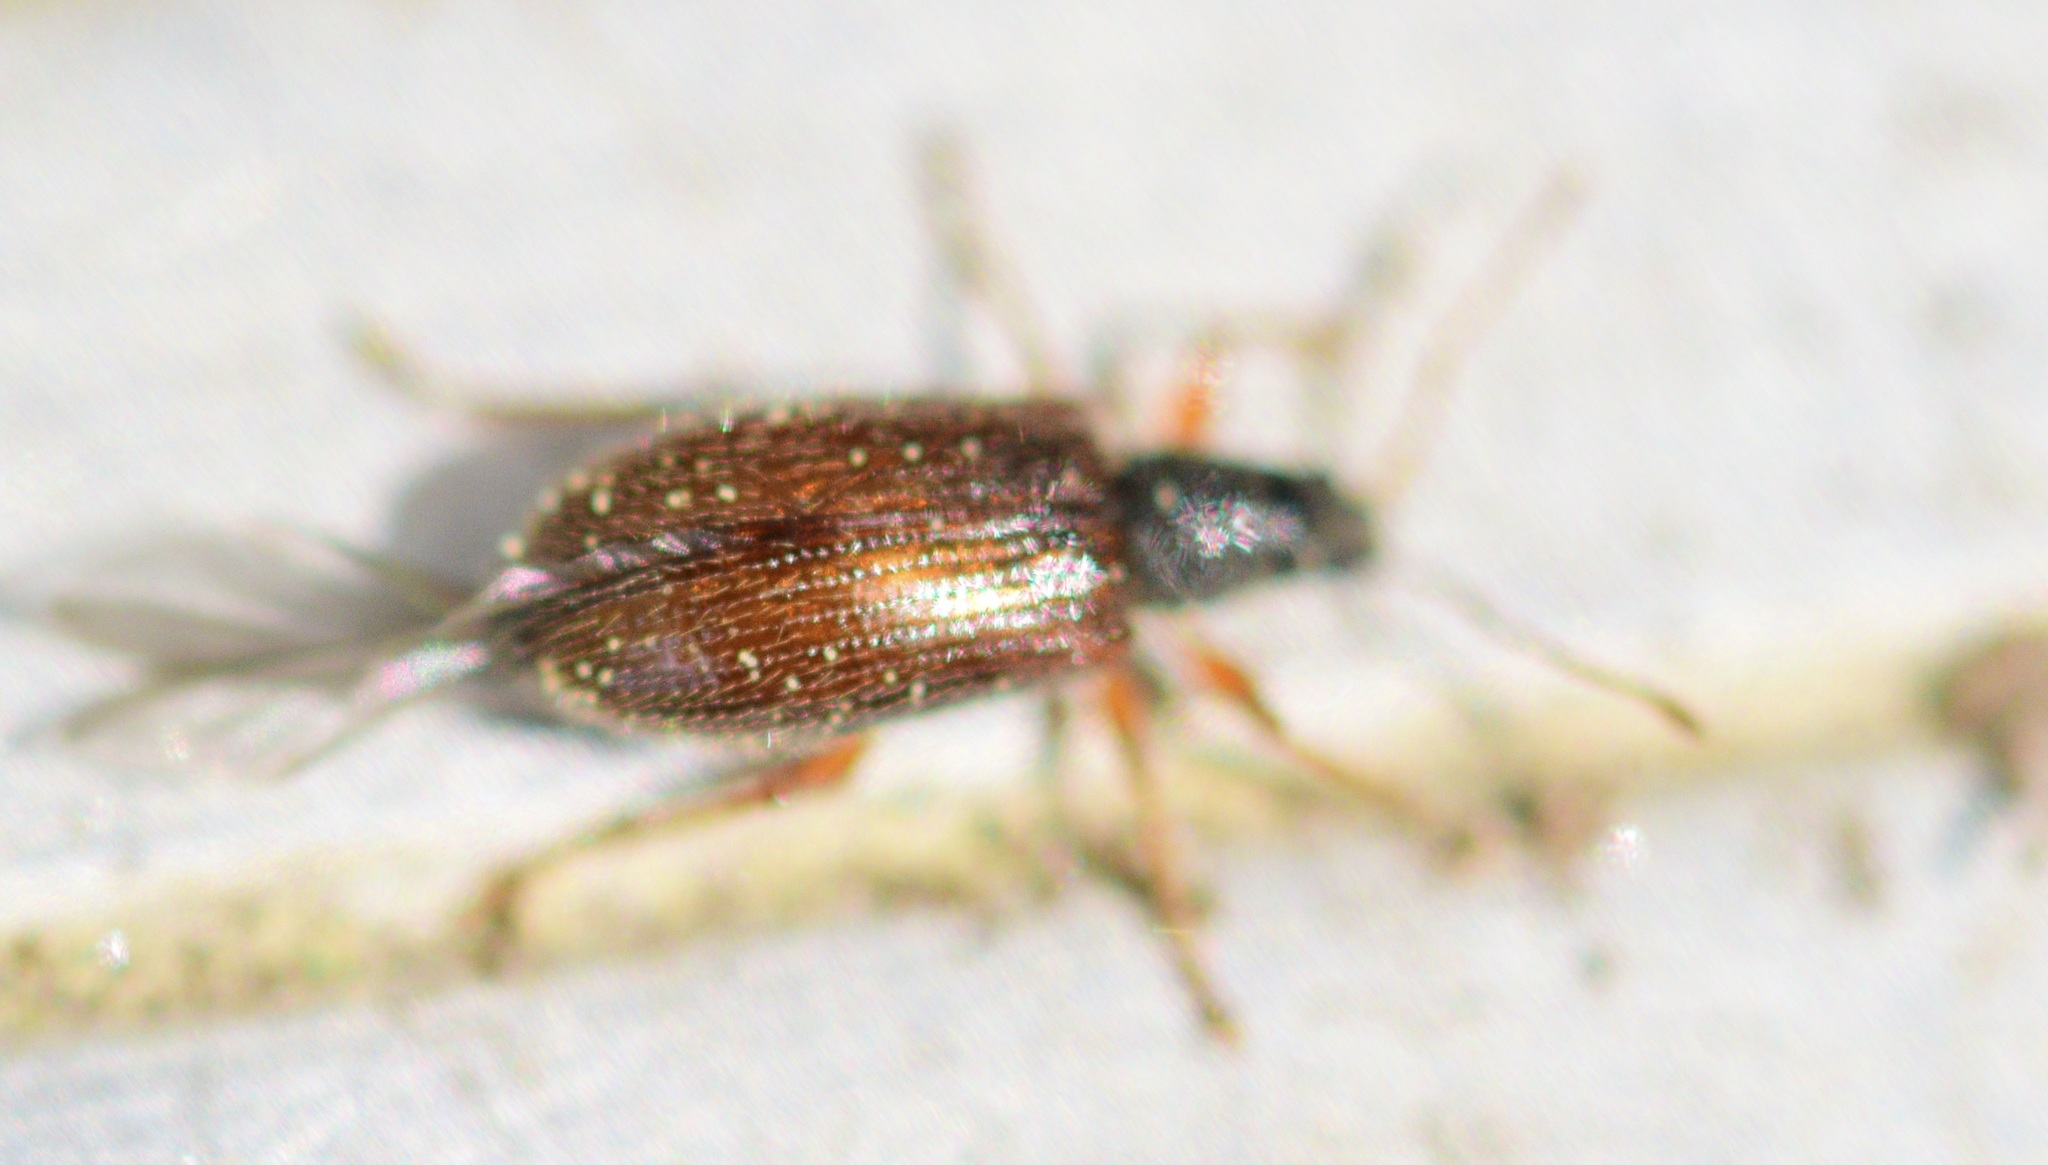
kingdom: Animalia
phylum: Arthropoda
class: Insecta
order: Coleoptera
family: Curculionidae
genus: Phyllobius
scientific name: Phyllobius oblongus
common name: Brown leaf weevil
